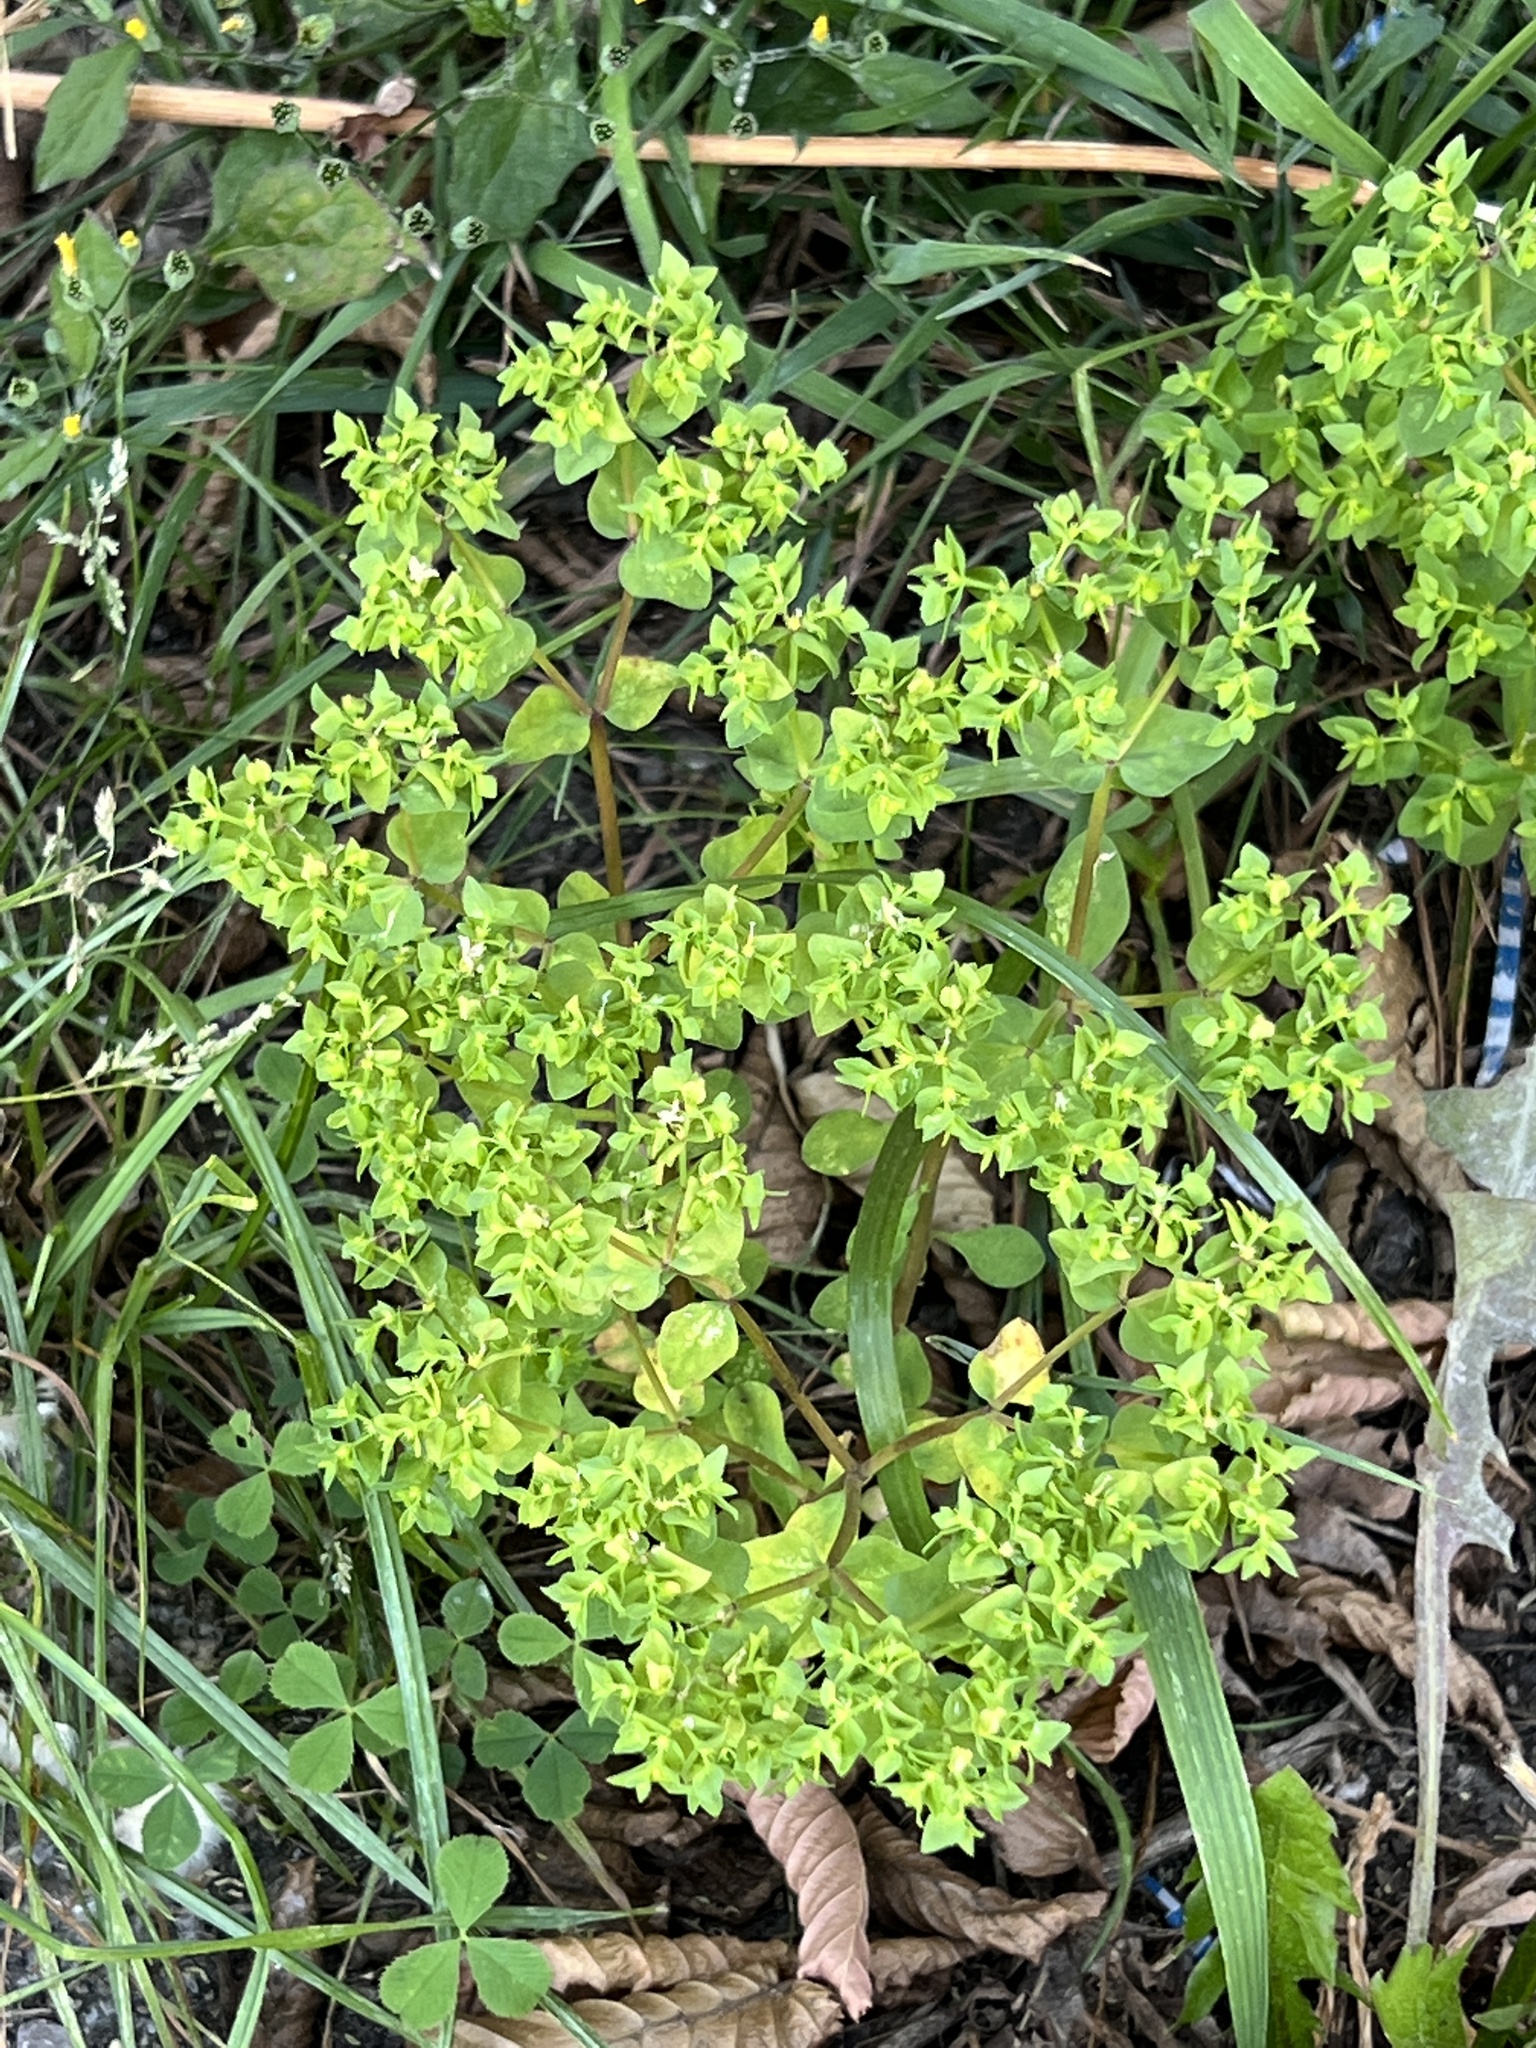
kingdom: Plantae
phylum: Tracheophyta
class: Magnoliopsida
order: Malpighiales
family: Euphorbiaceae
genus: Euphorbia
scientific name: Euphorbia peplus
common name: Petty spurge
